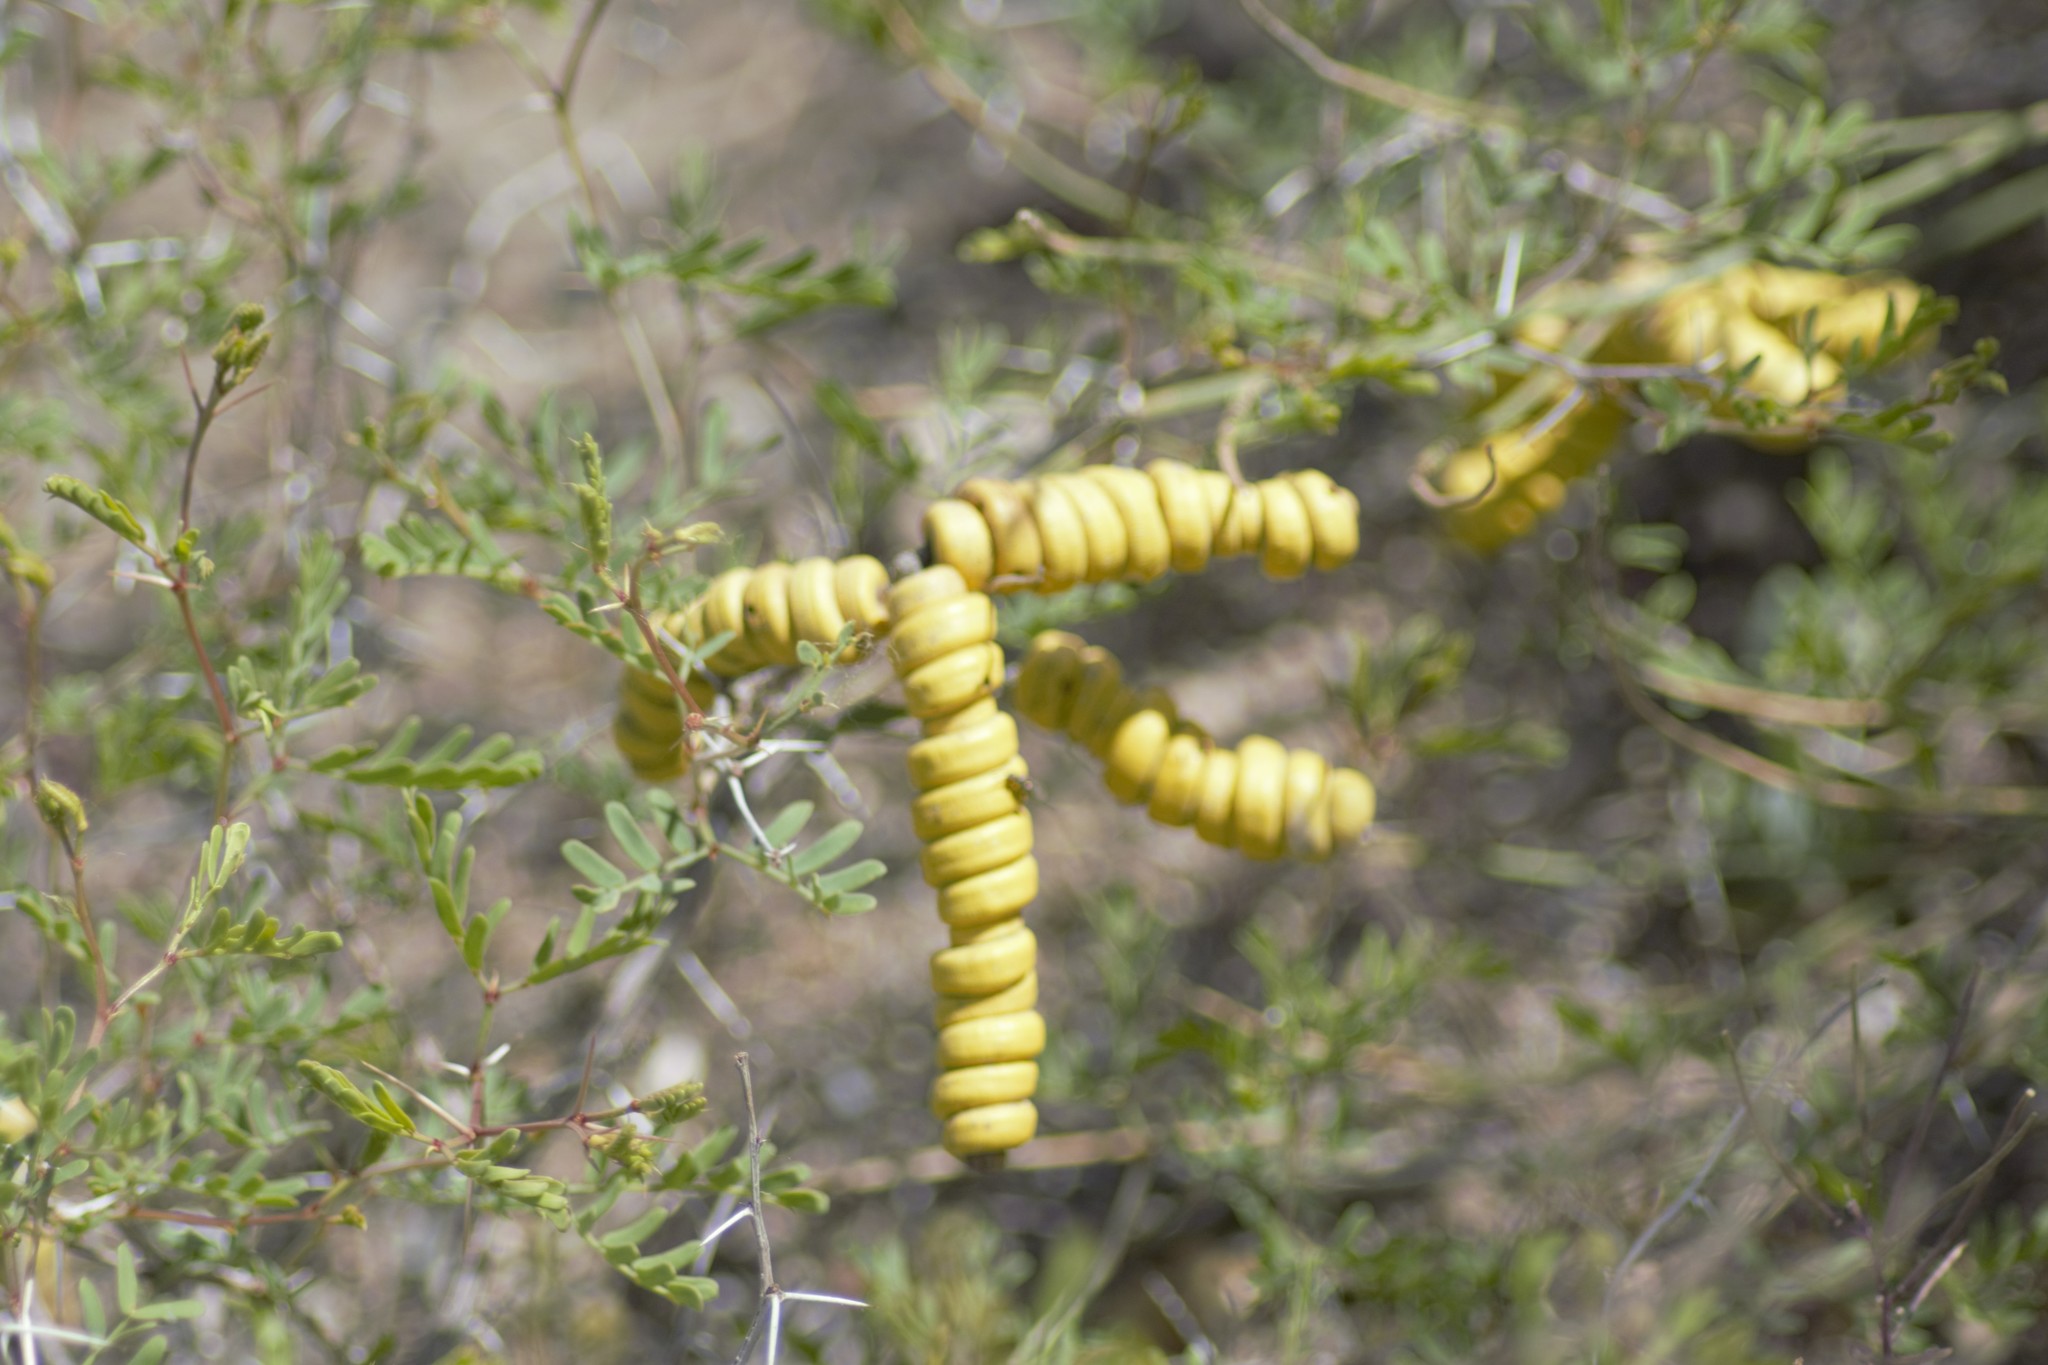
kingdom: Plantae
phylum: Tracheophyta
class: Magnoliopsida
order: Fabales
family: Fabaceae
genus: Prosopis
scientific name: Prosopis strombulifera
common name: Creeping mesquite
